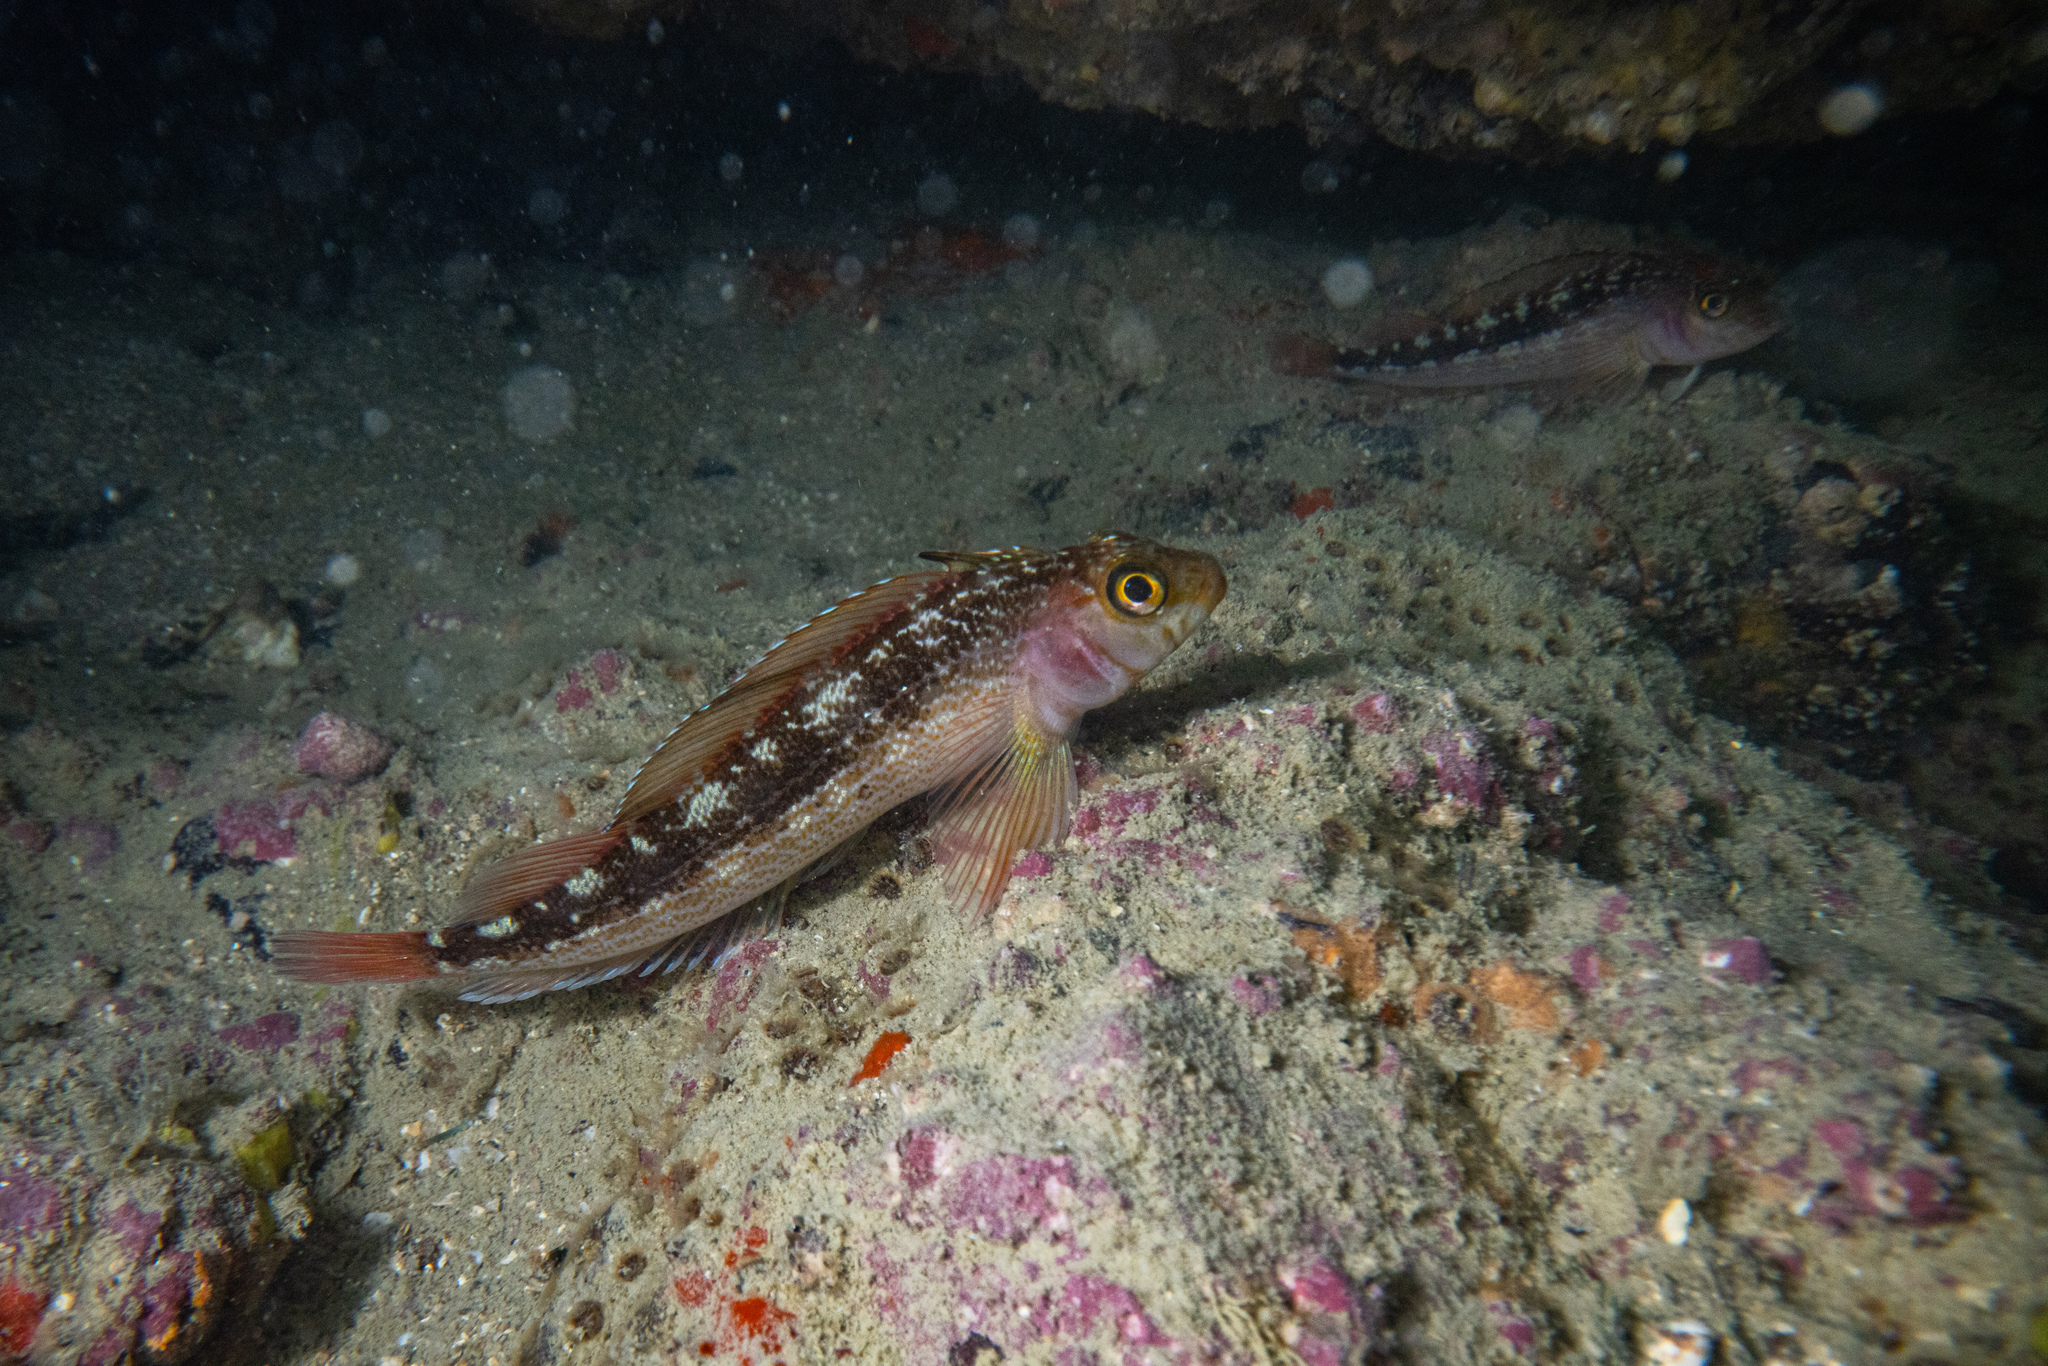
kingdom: Animalia
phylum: Chordata
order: Perciformes
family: Tripterygiidae
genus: Forsterygion
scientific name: Forsterygion varium
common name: Variable triplefin
